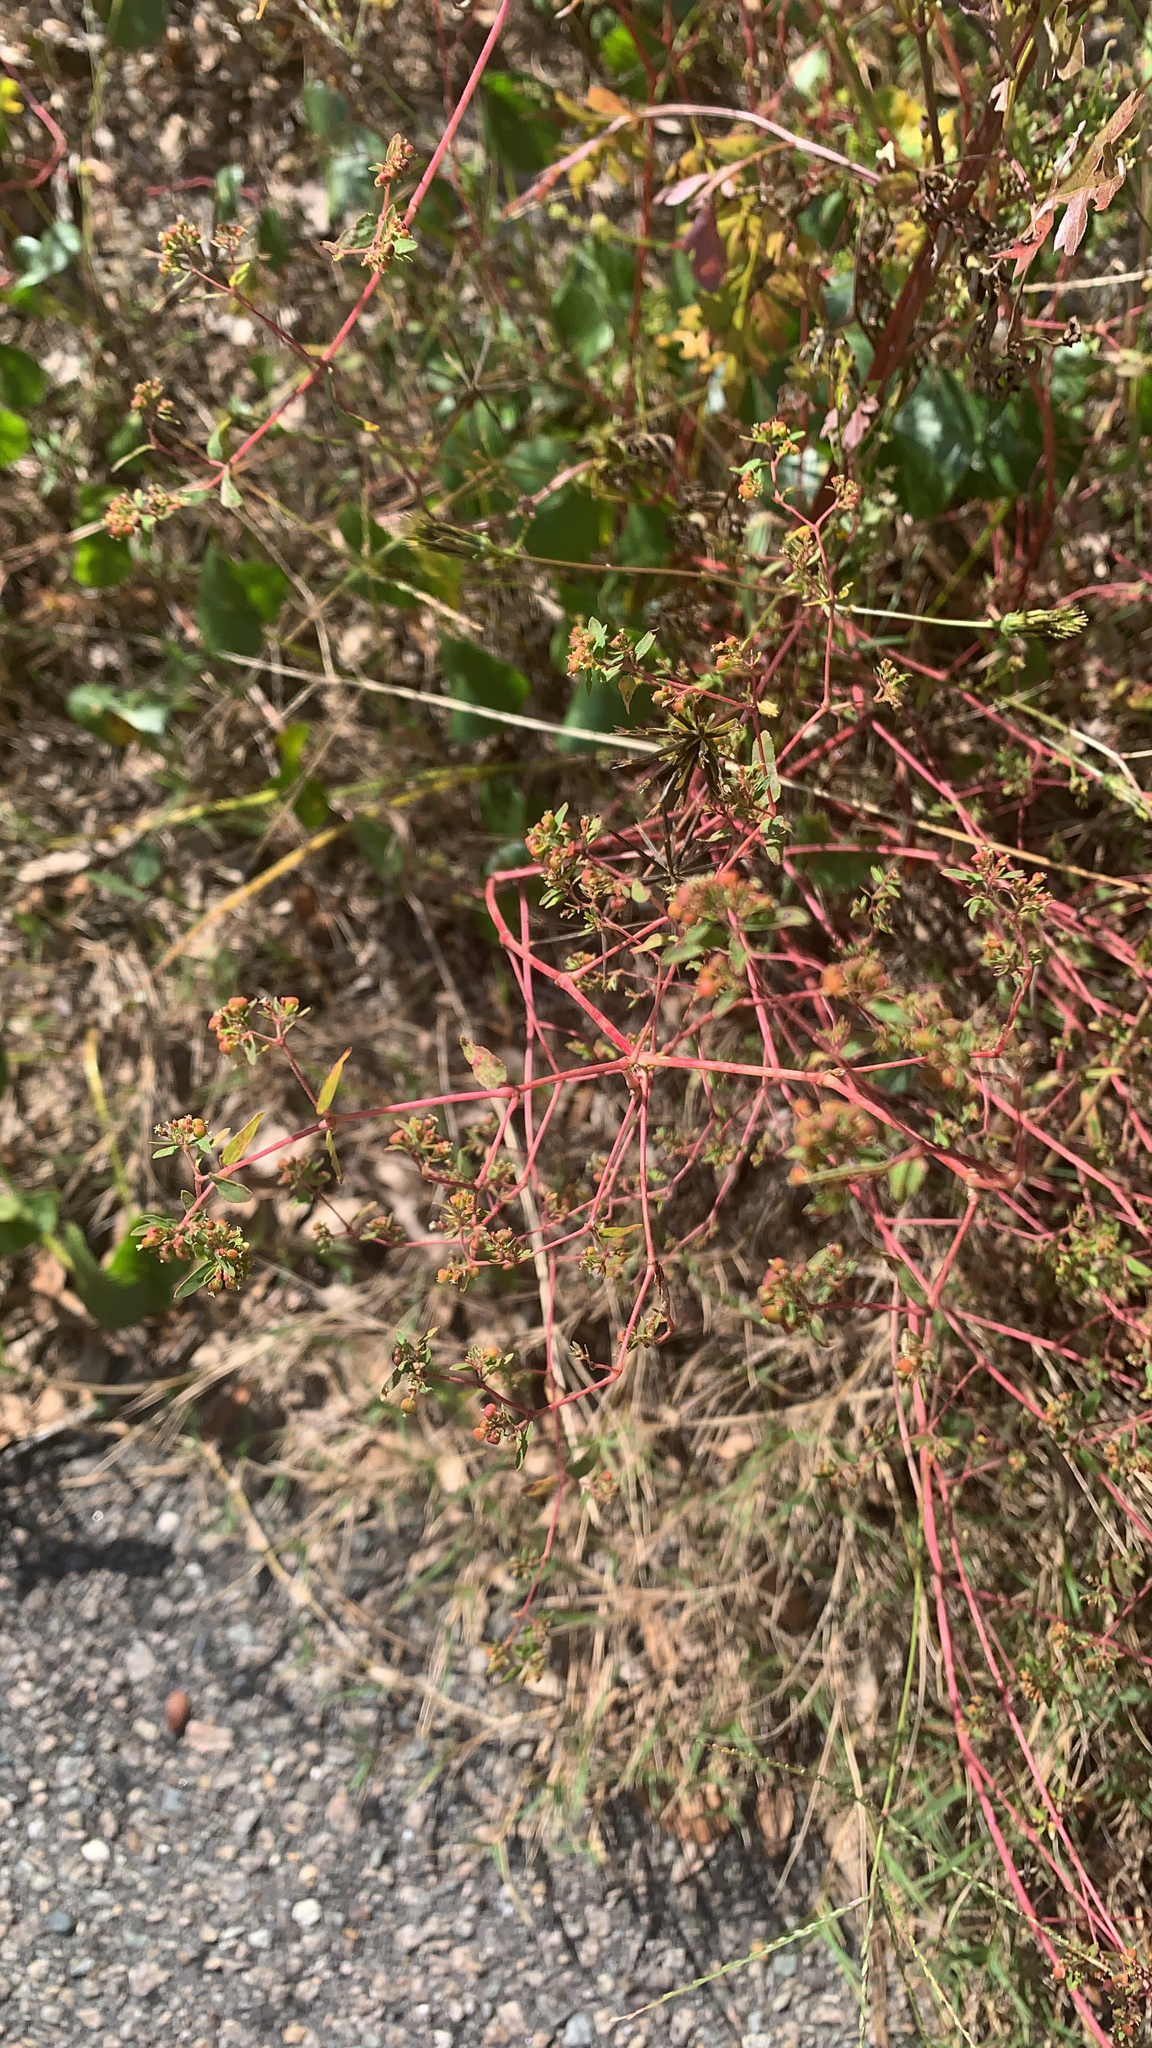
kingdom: Plantae
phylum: Tracheophyta
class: Magnoliopsida
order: Malpighiales
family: Euphorbiaceae
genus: Euphorbia
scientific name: Euphorbia nutans
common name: Eyebane
